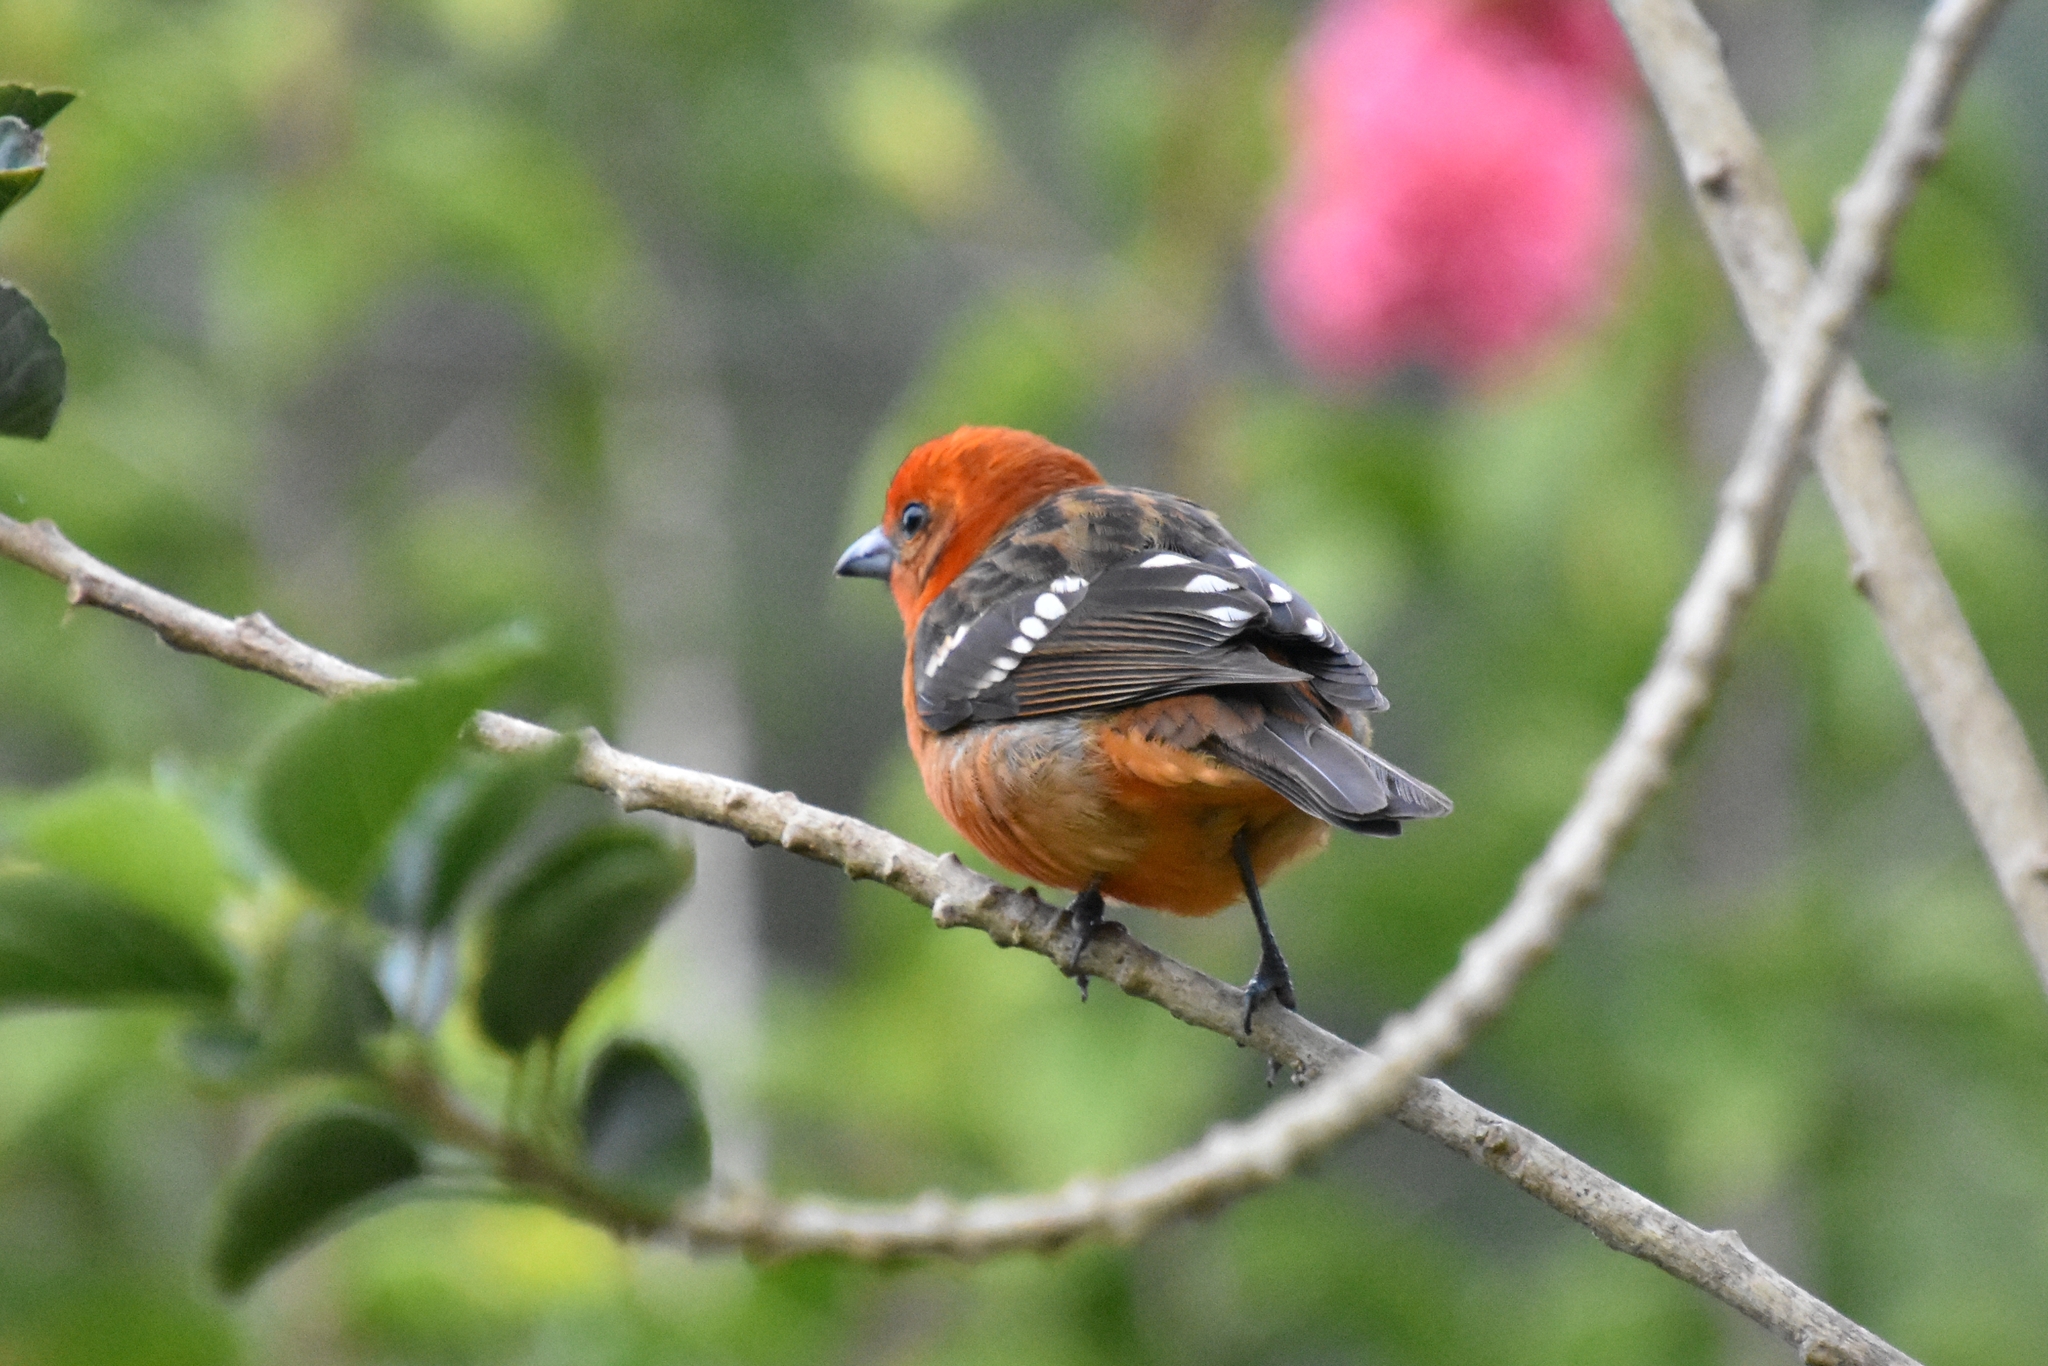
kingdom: Animalia
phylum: Chordata
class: Aves
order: Passeriformes
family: Cardinalidae
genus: Piranga
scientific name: Piranga bidentata
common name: Flame-colored tanager
